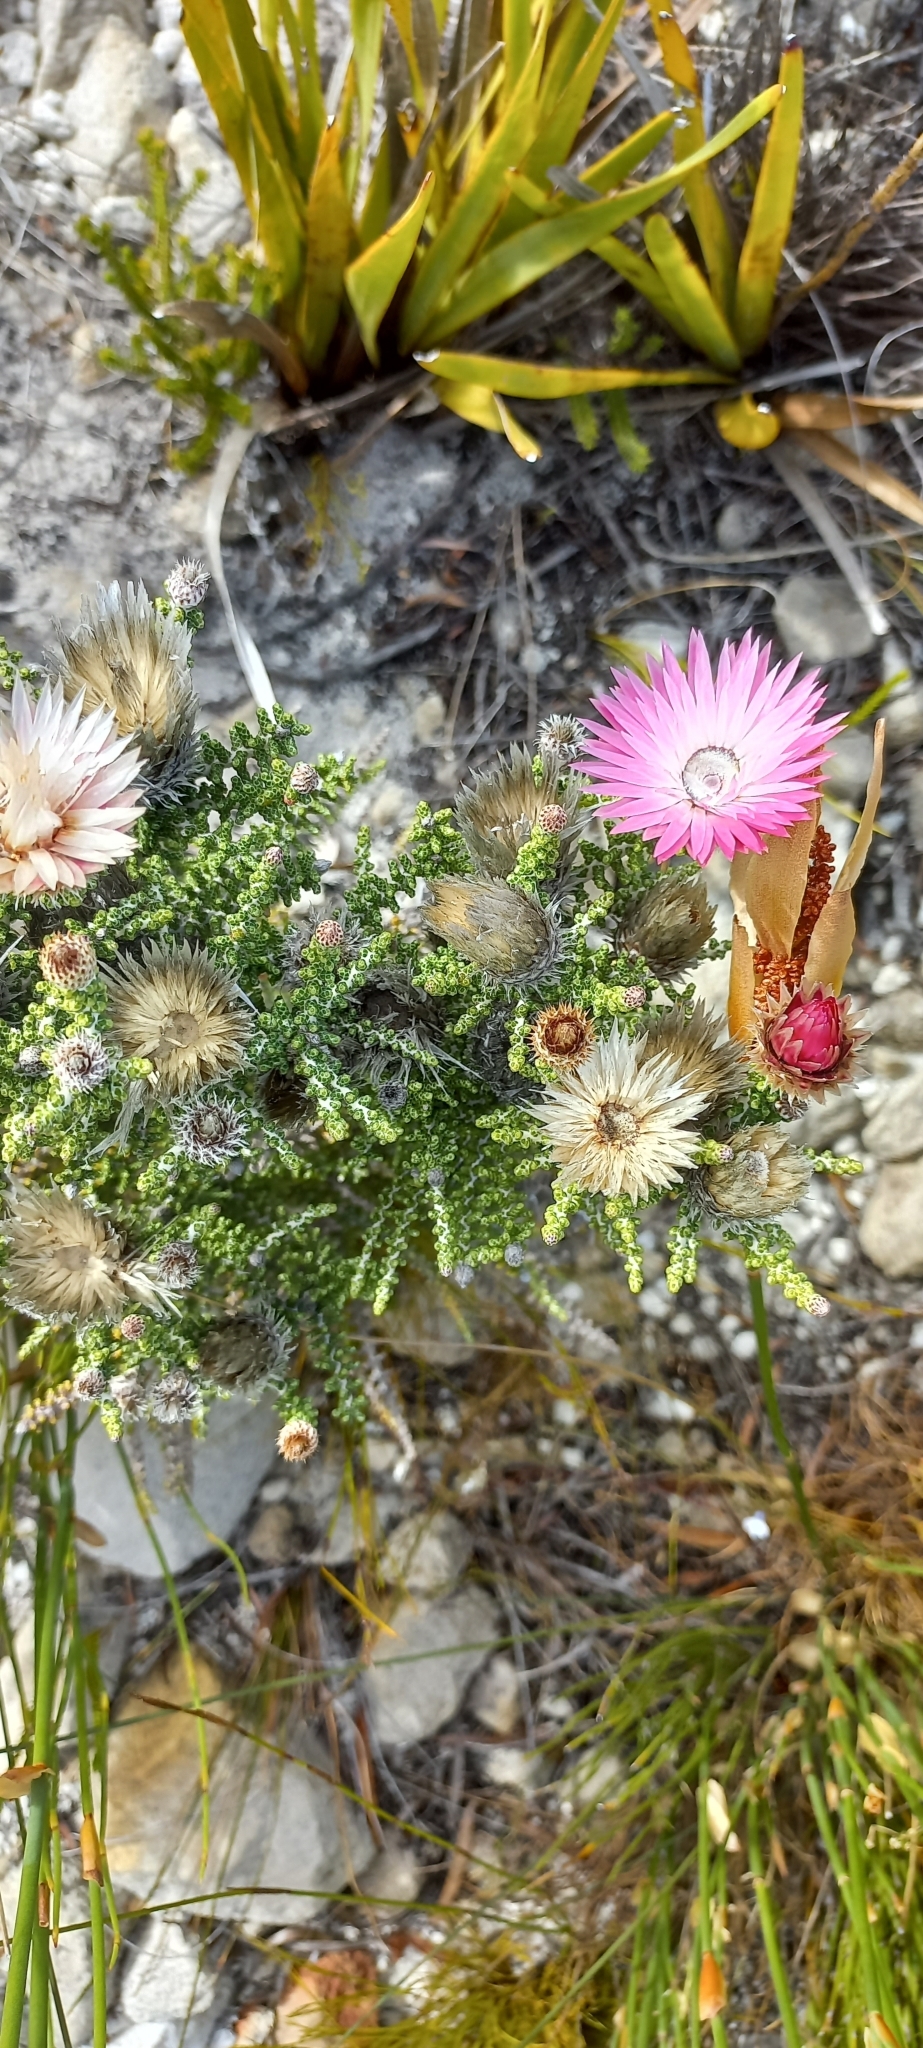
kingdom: Plantae
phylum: Tracheophyta
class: Magnoliopsida
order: Asterales
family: Asteraceae
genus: Phaenocoma
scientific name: Phaenocoma prolifera
